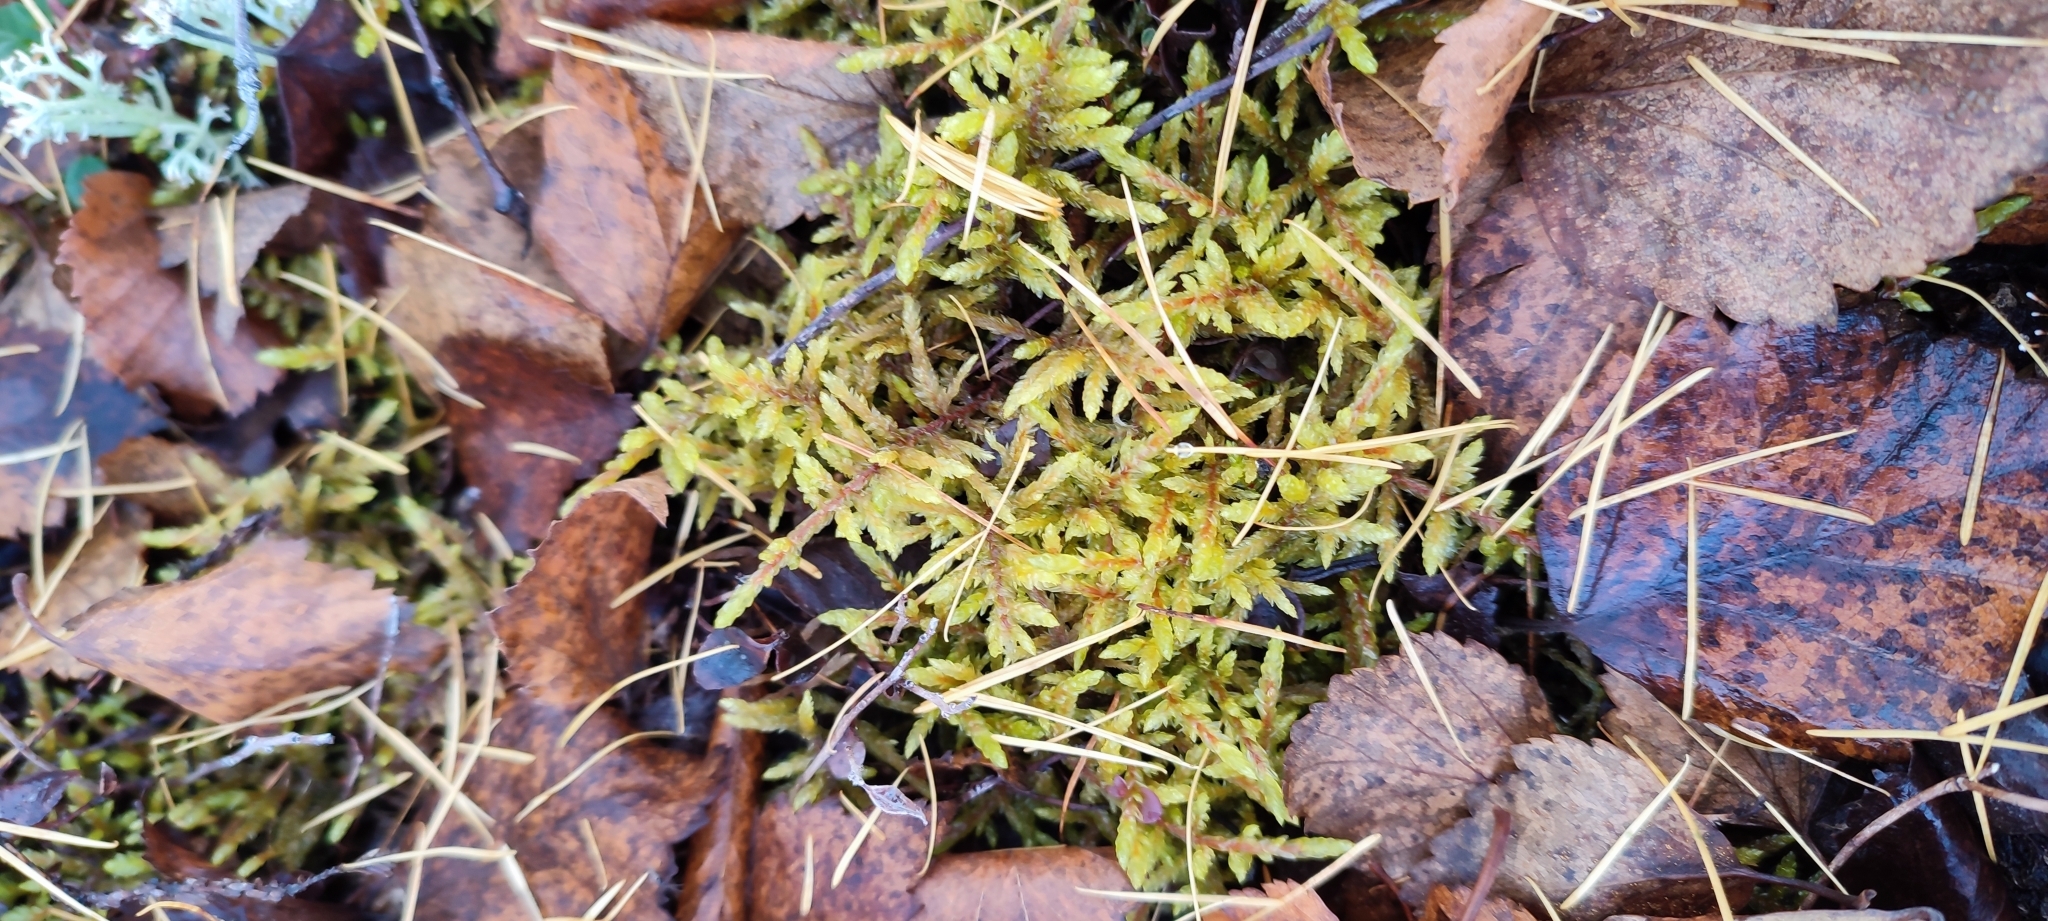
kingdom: Plantae
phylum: Bryophyta
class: Bryopsida
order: Hypnales
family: Hylocomiaceae
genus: Pleurozium
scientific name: Pleurozium schreberi
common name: Red-stemmed feather moss
